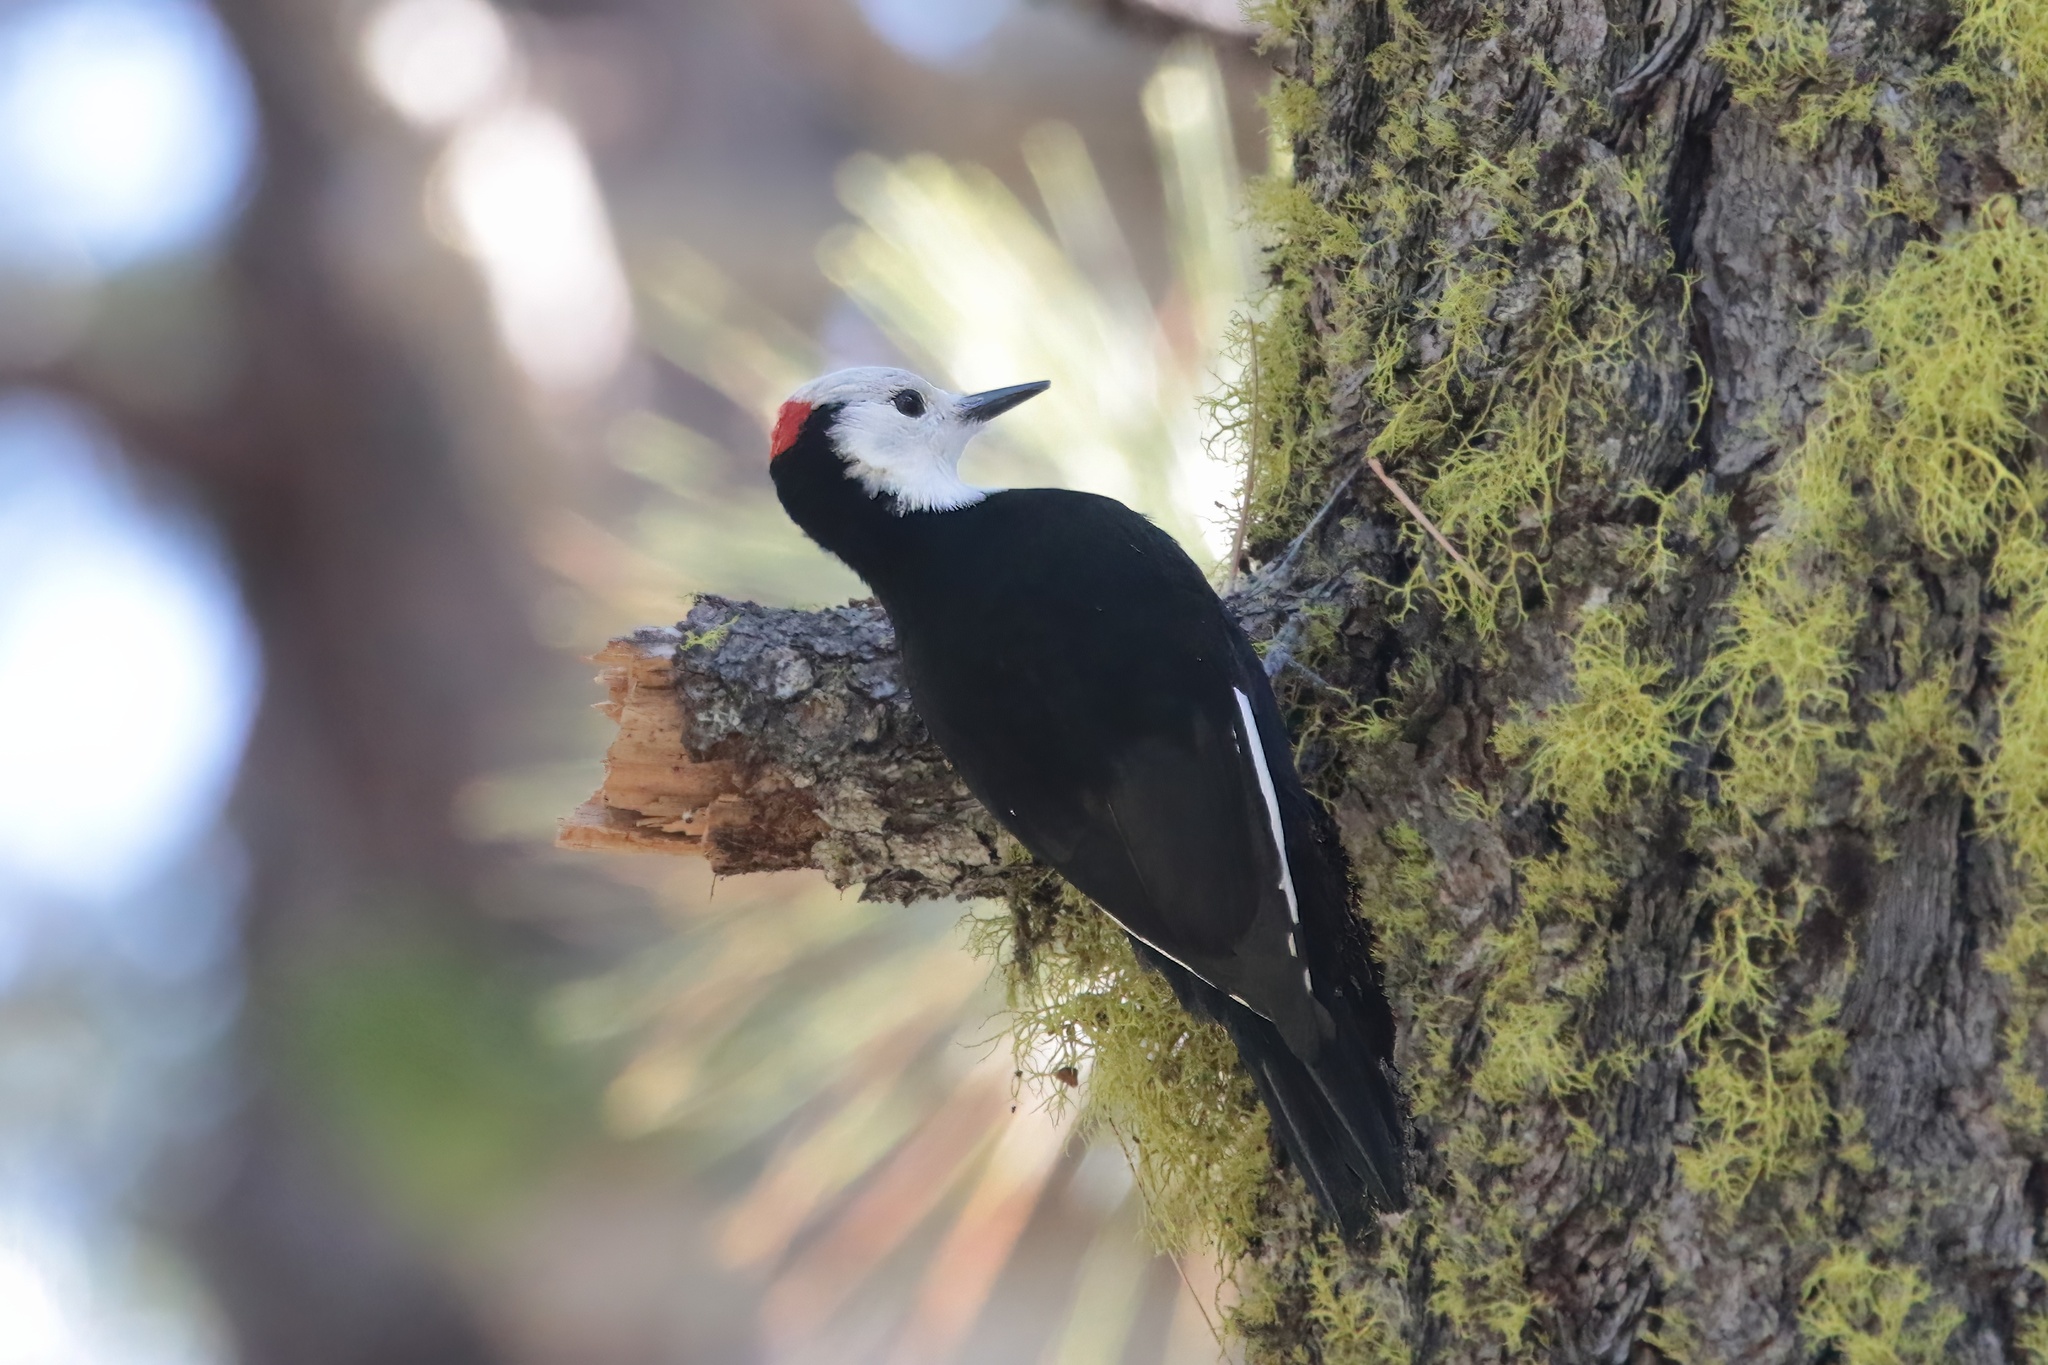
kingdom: Animalia
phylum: Chordata
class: Aves
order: Piciformes
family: Picidae
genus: Leuconotopicus
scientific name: Leuconotopicus albolarvatus
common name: White-headed woodpecker
